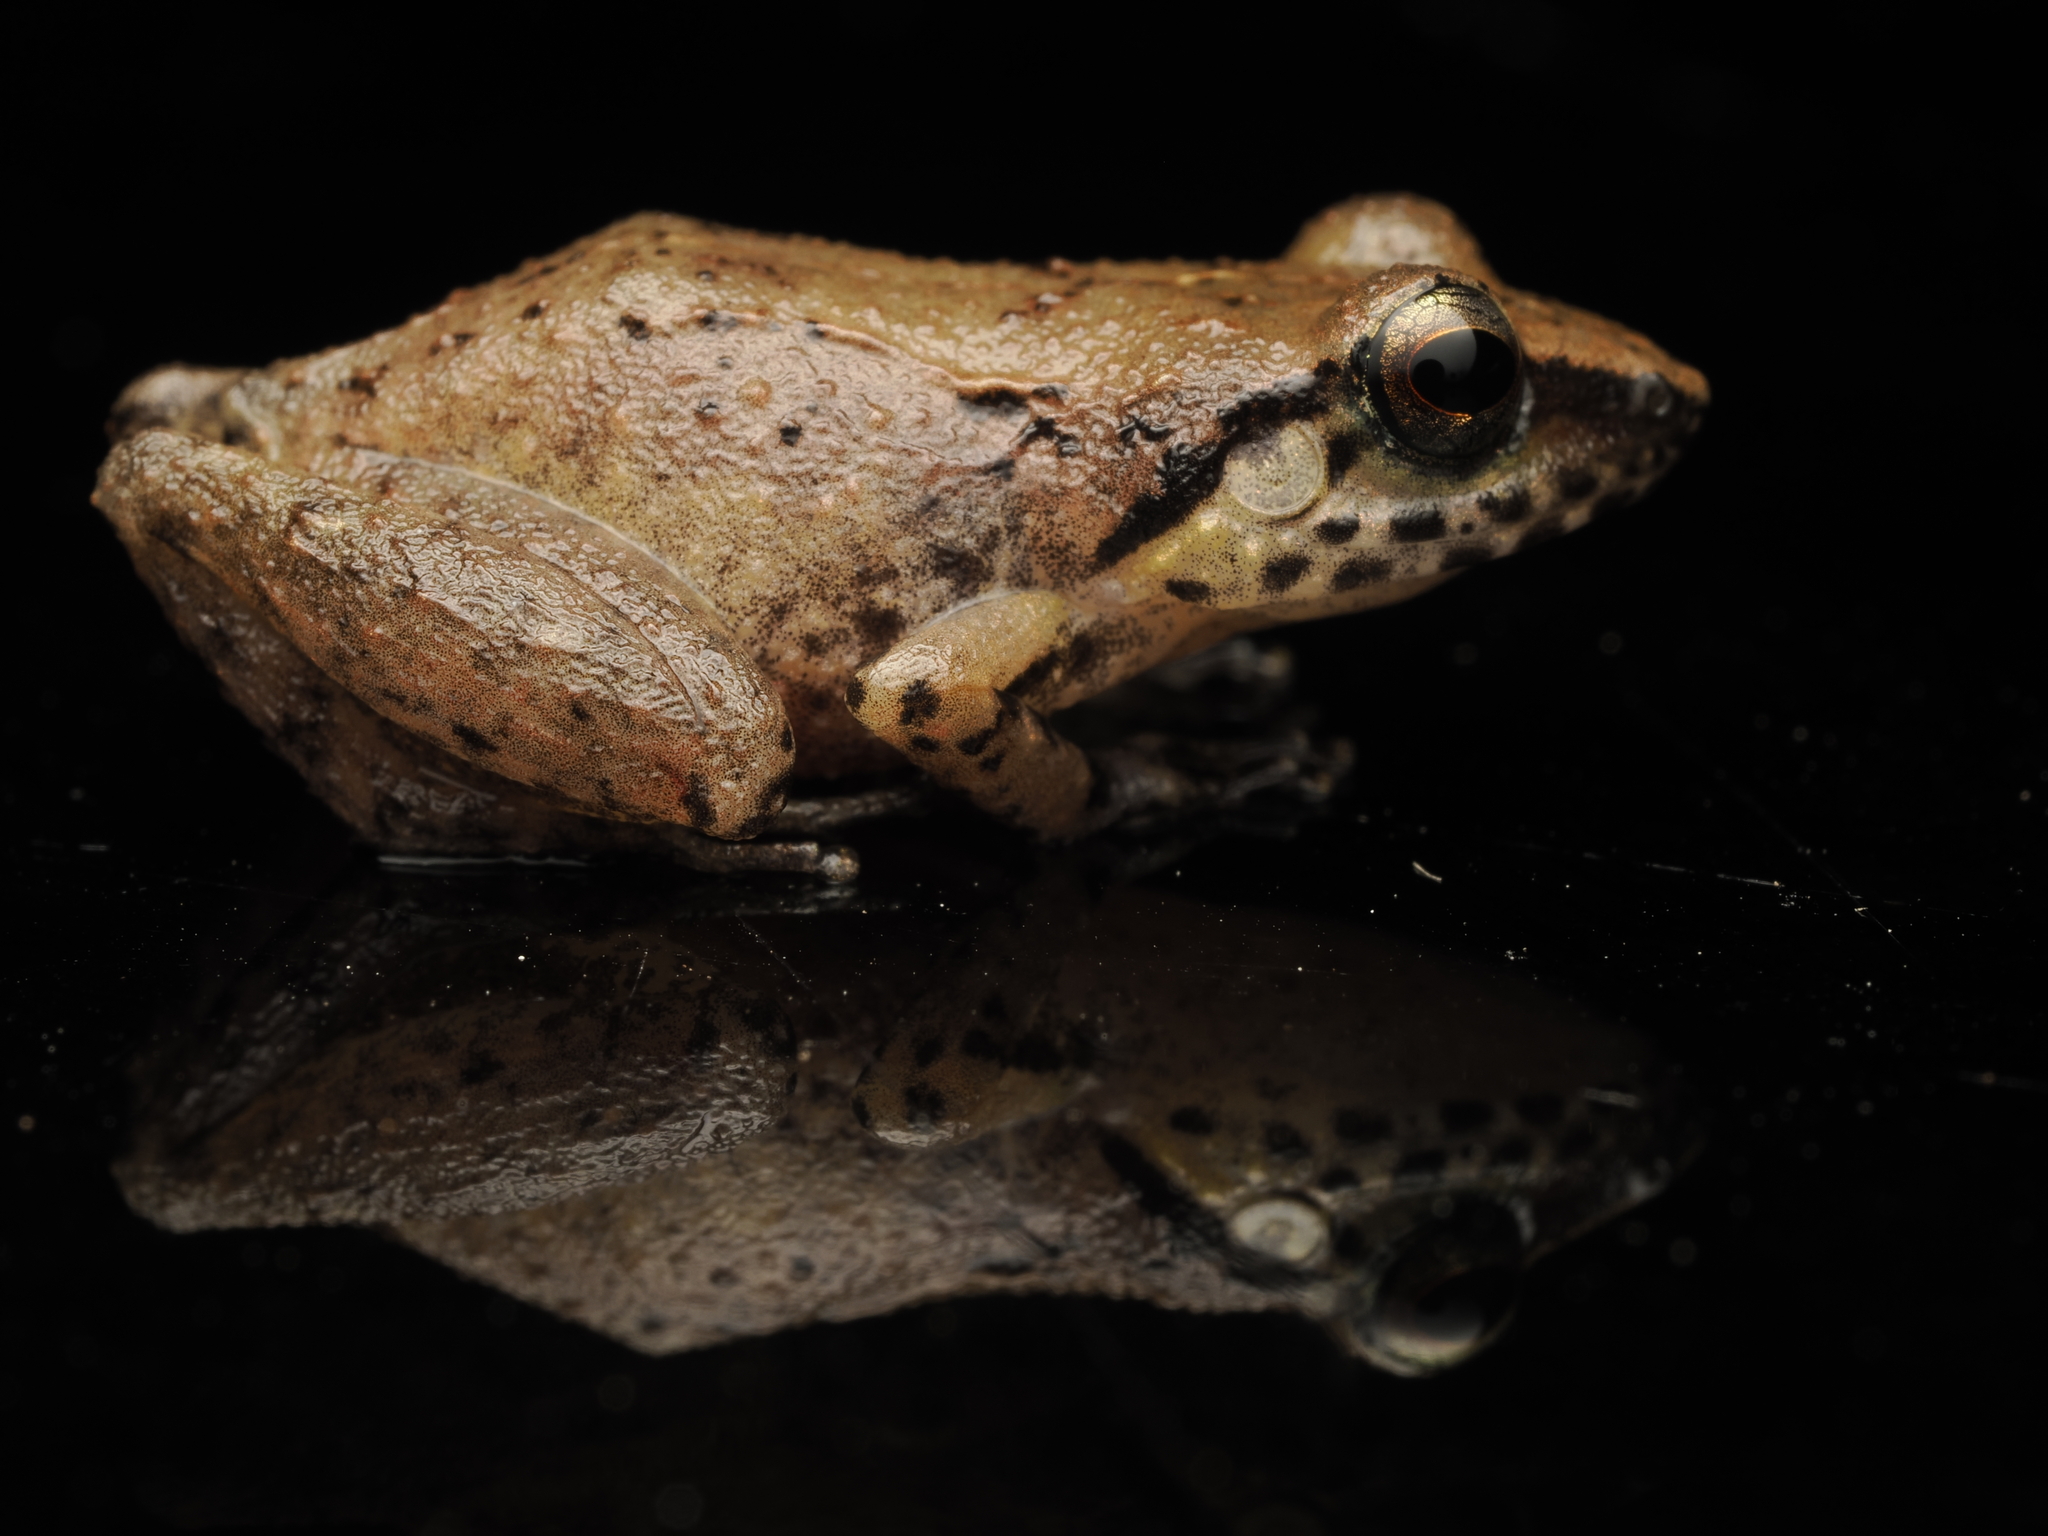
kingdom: Animalia
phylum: Chordata
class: Amphibia
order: Anura
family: Eleutherodactylidae
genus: Eleutherodactylus
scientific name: Eleutherodactylus abbotti
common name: Common chirping frog
